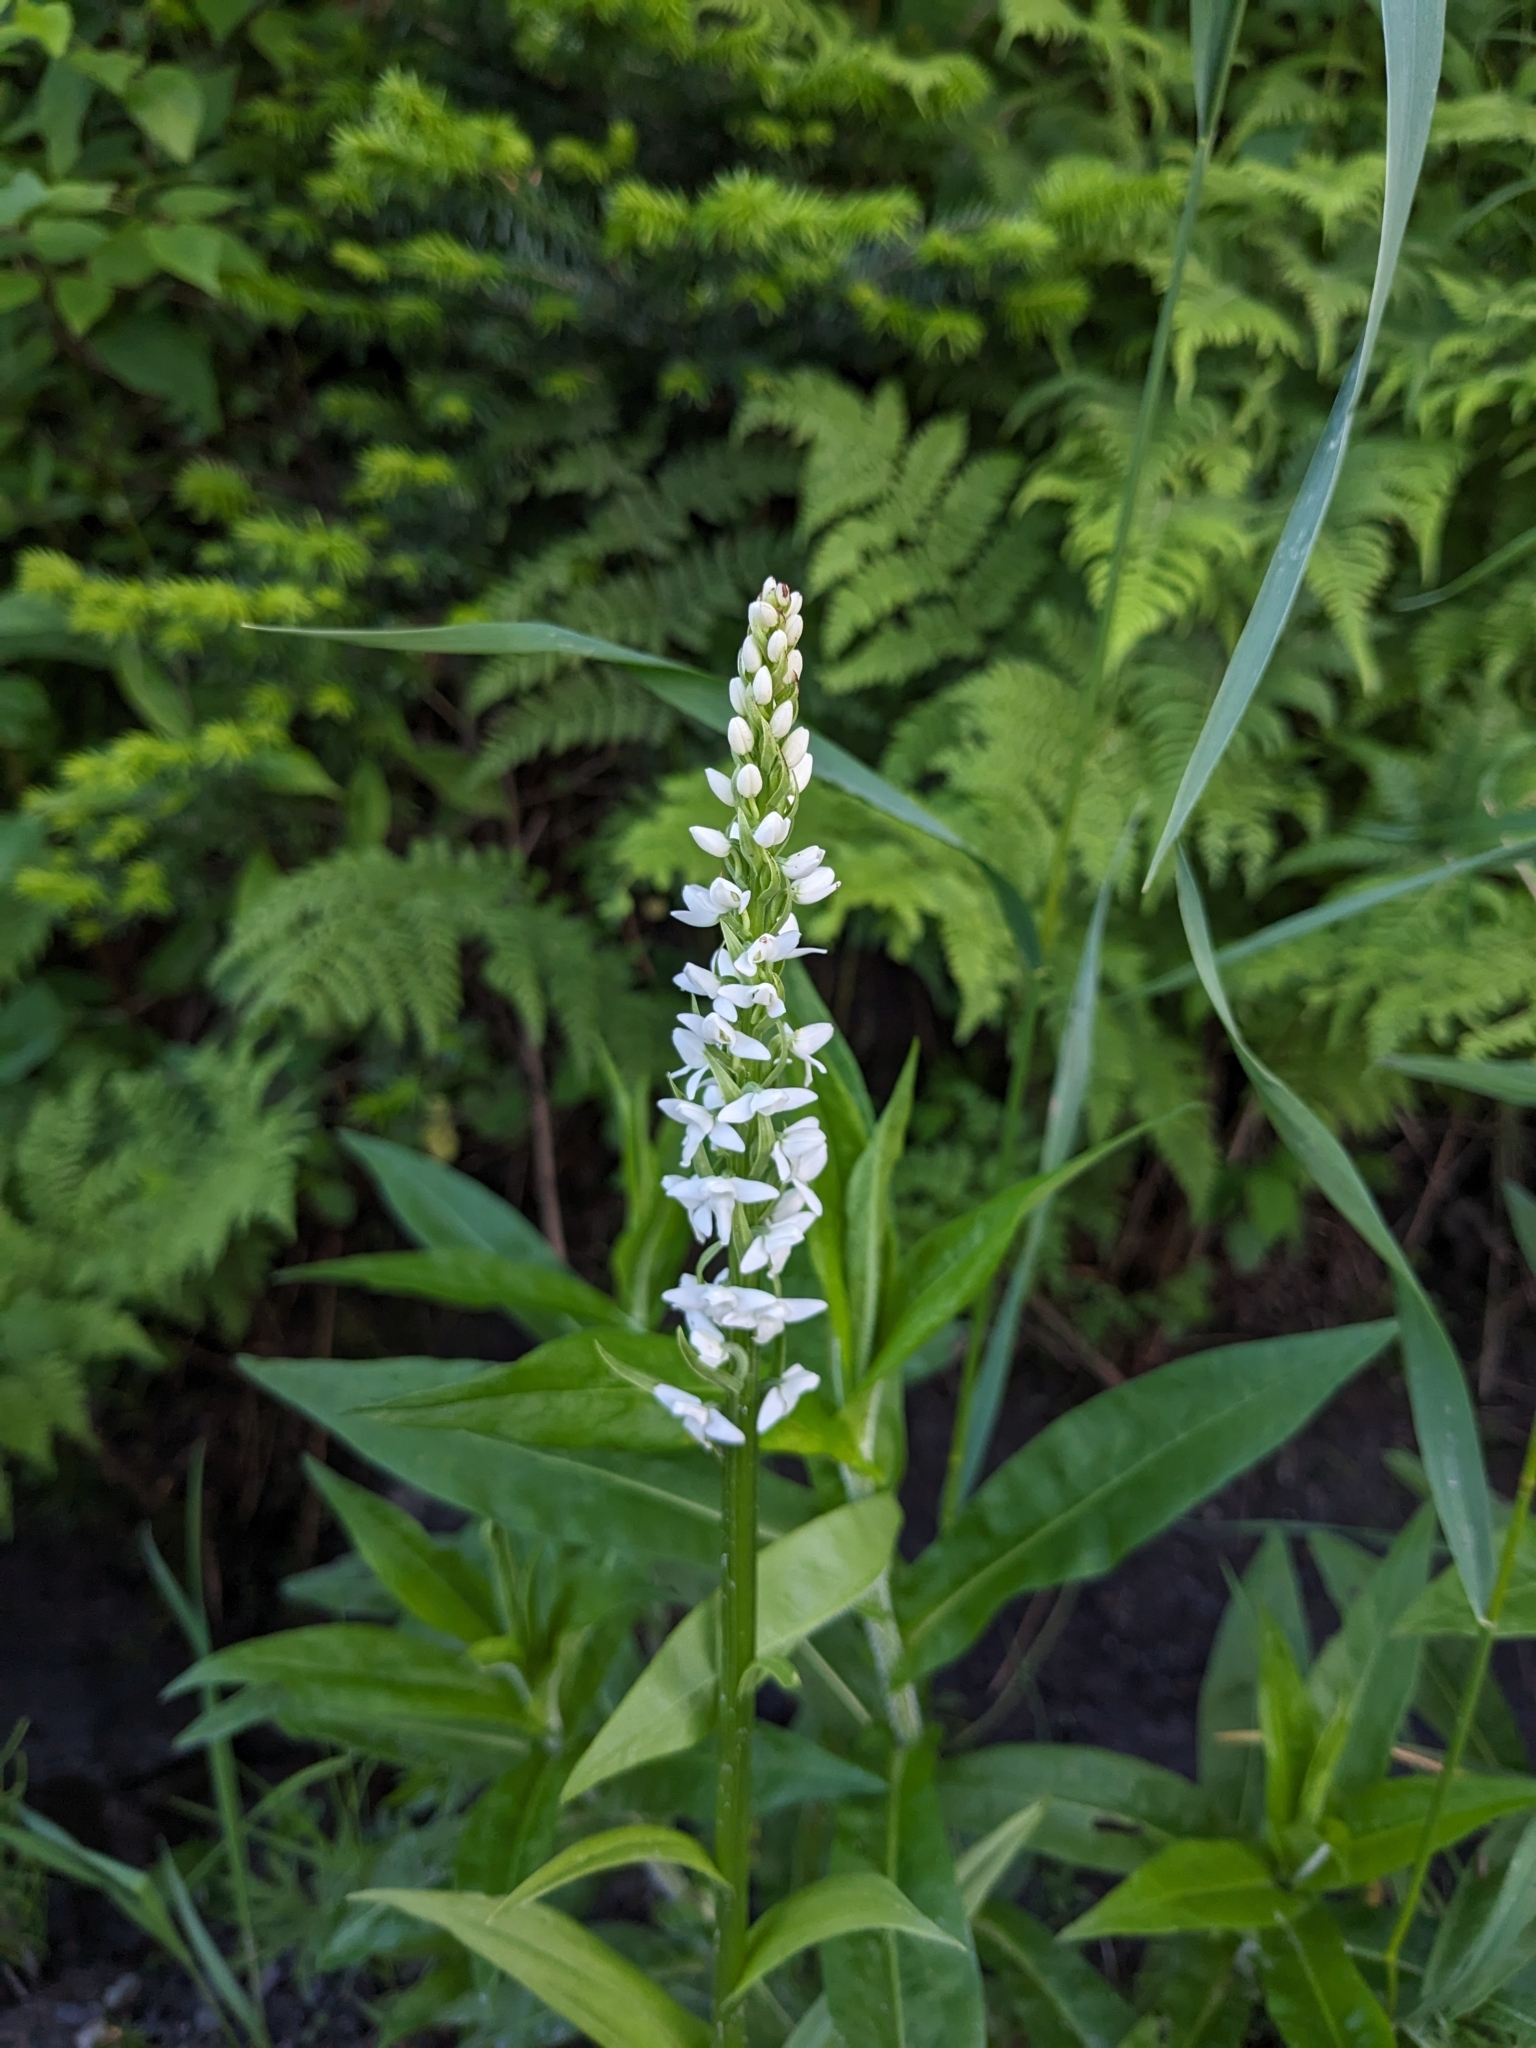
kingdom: Plantae
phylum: Tracheophyta
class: Liliopsida
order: Asparagales
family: Orchidaceae
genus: Platanthera
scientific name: Platanthera dilatata
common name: Bog candles
